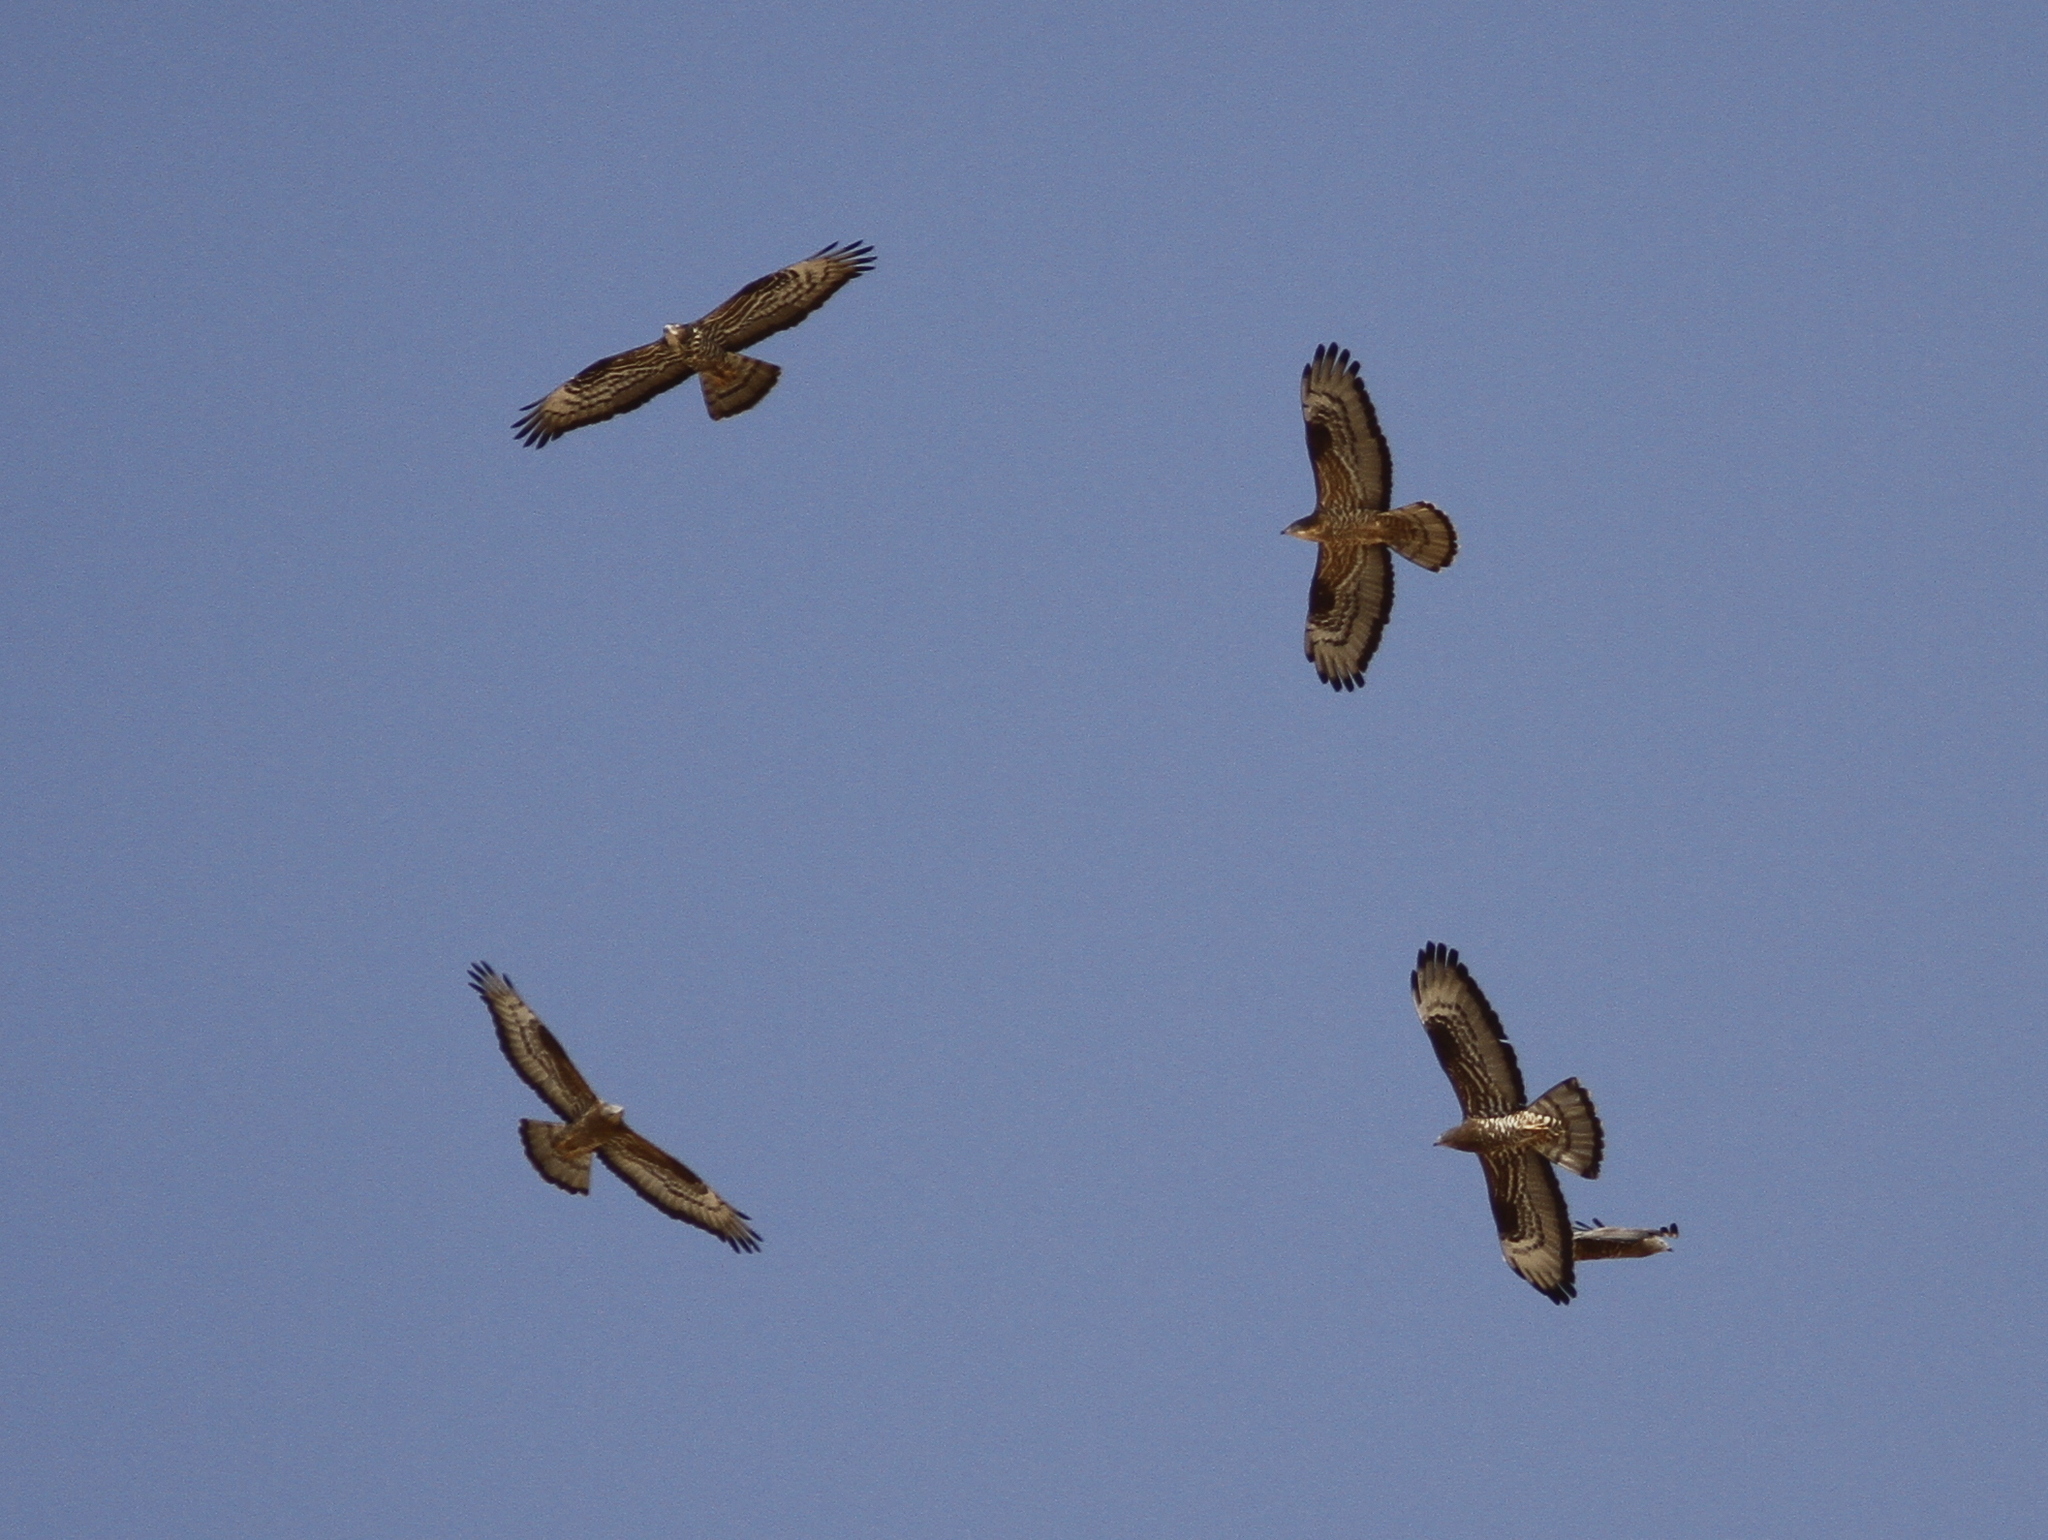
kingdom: Animalia
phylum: Chordata
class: Aves
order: Accipitriformes
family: Accipitridae
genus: Pernis
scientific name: Pernis apivorus
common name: European honey buzzard
